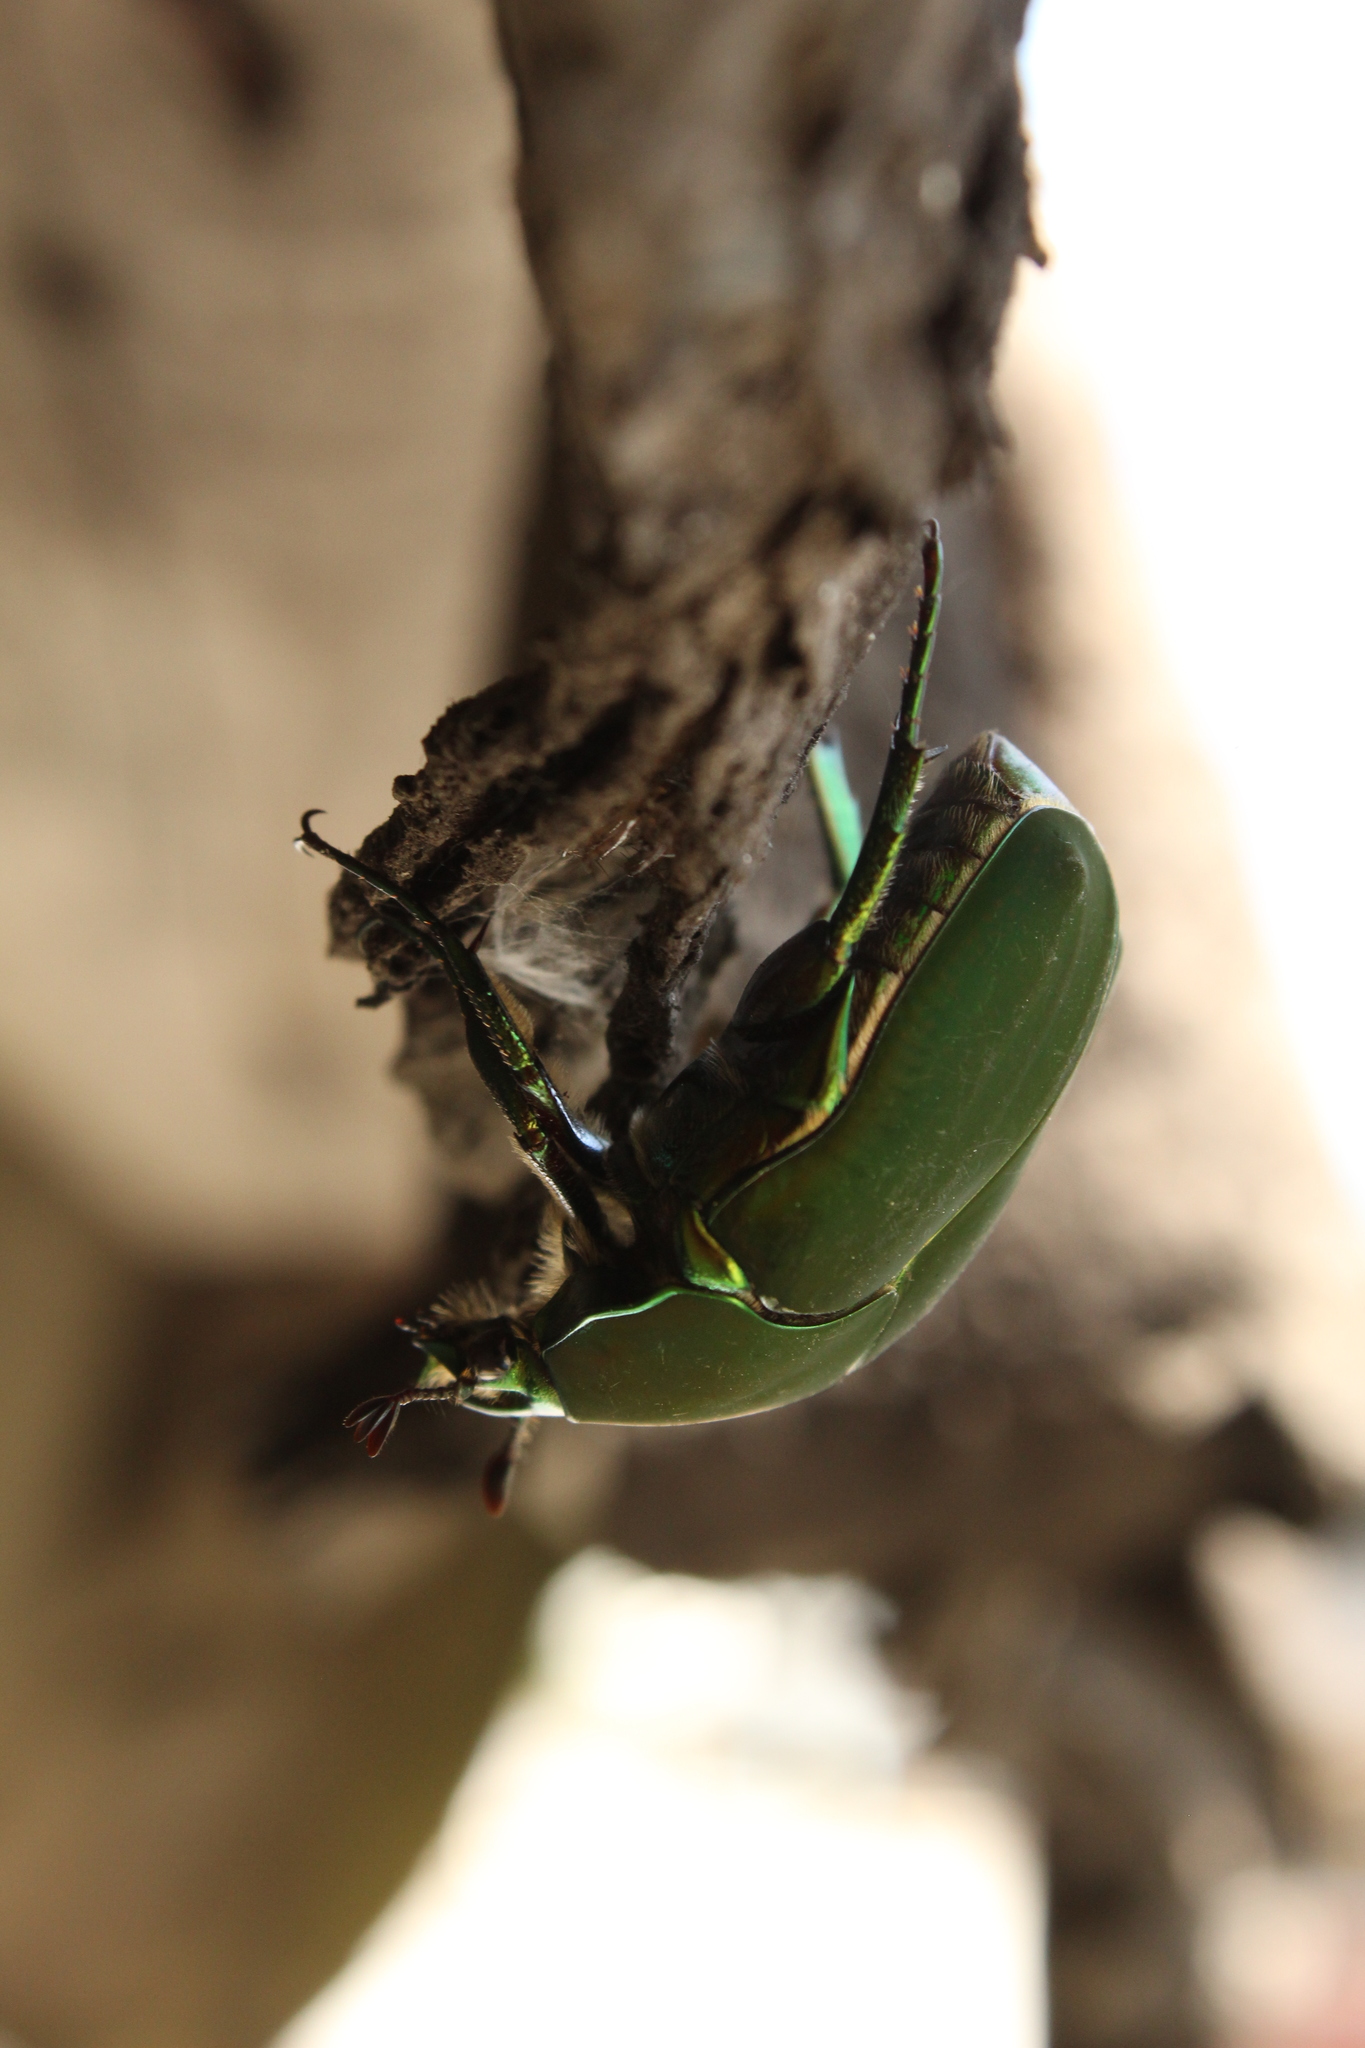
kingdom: Animalia
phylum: Arthropoda
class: Insecta
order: Coleoptera
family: Scarabaeidae
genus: Cotinis
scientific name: Cotinis mutabilis
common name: Figeater beetle
